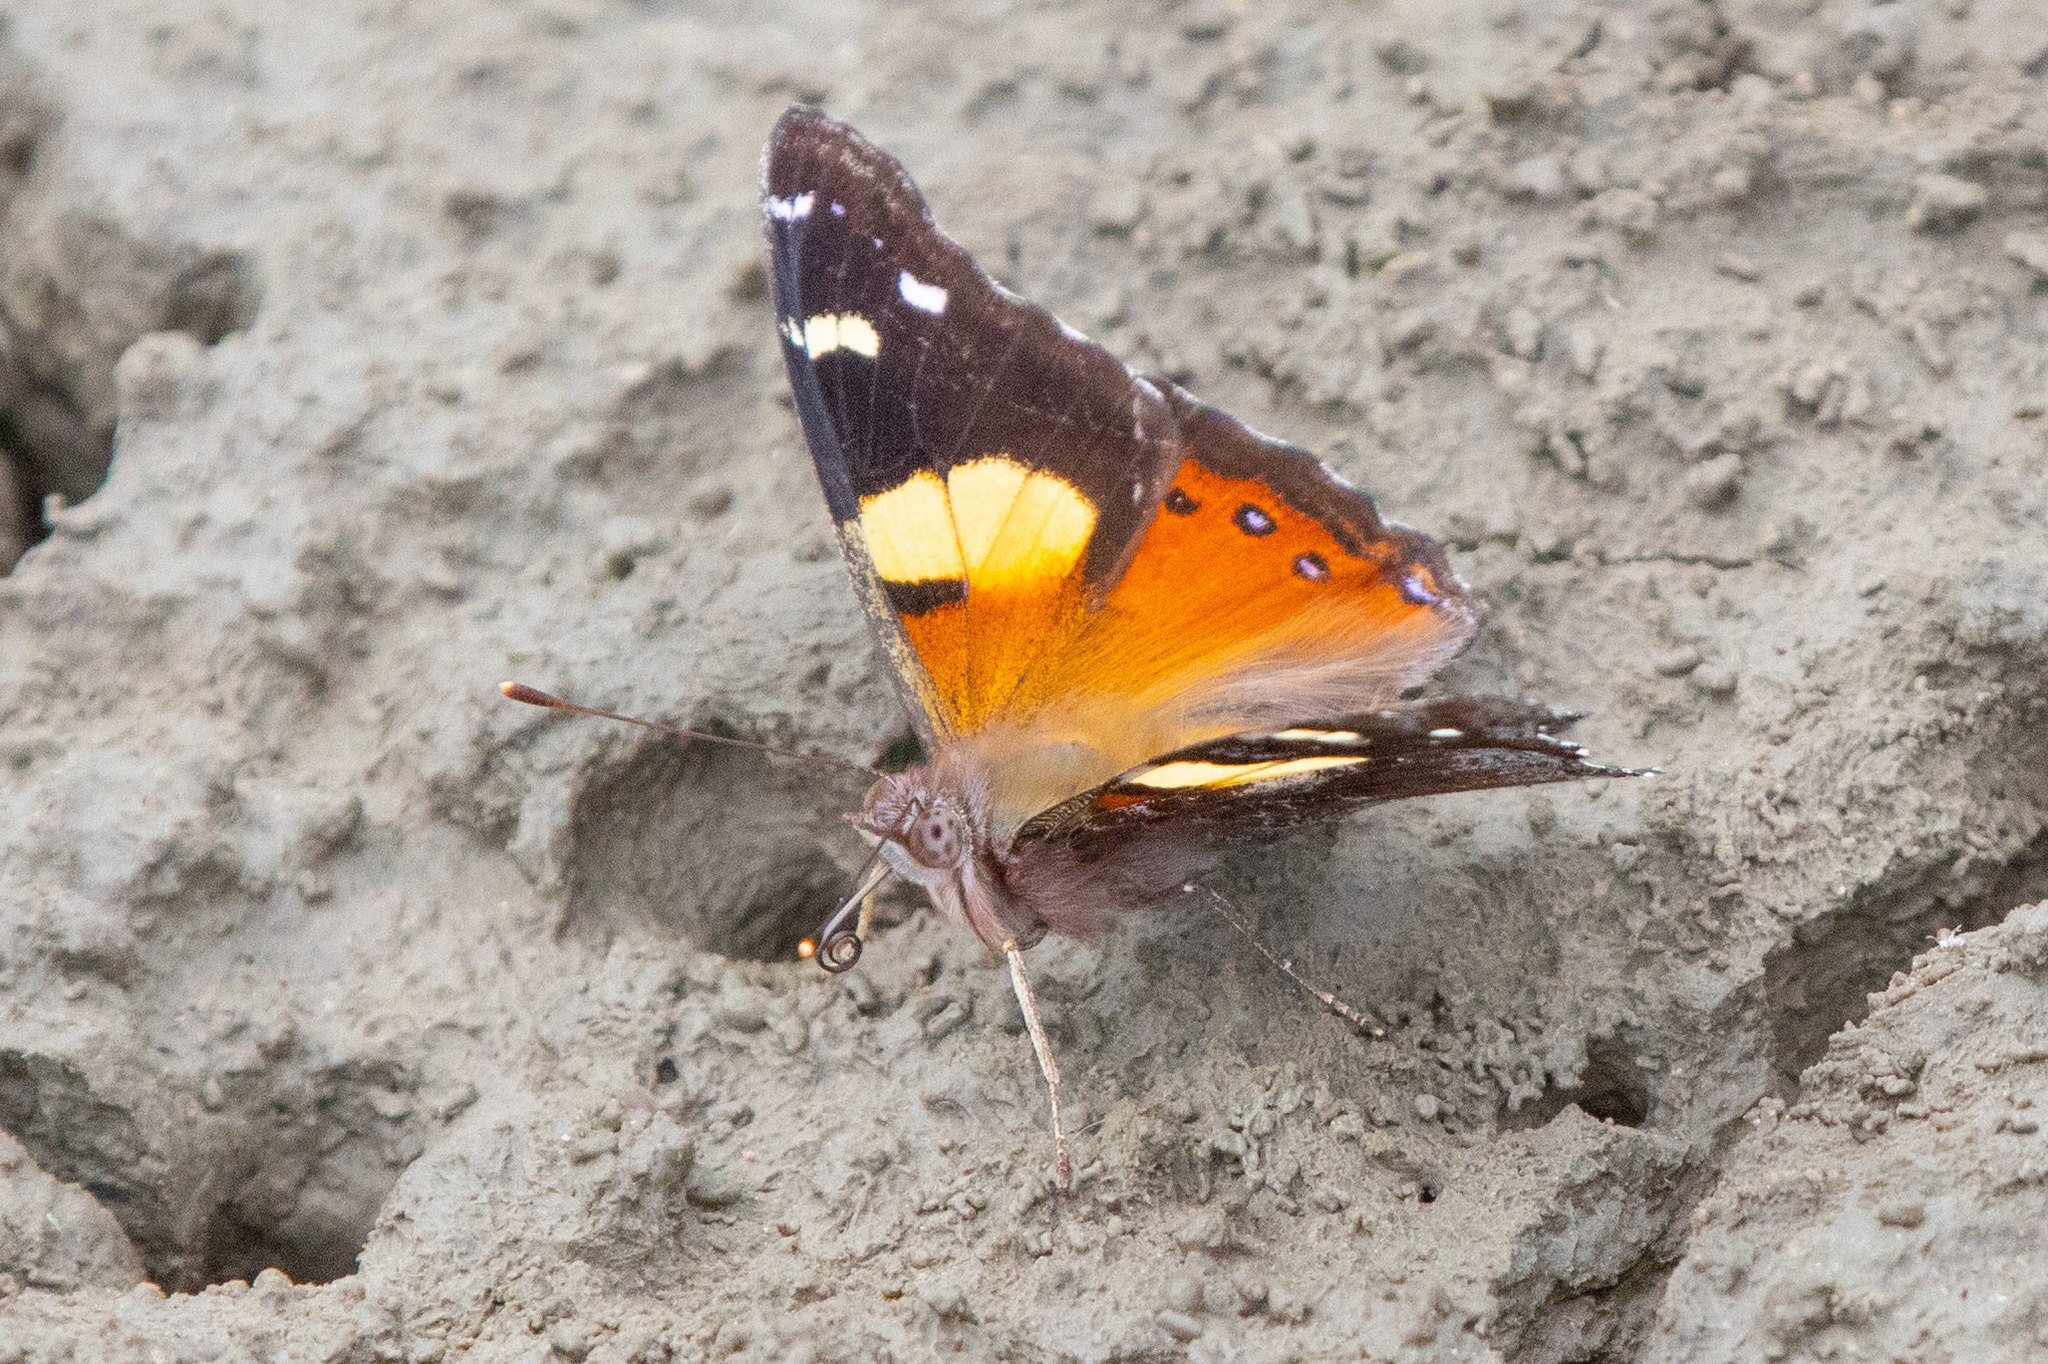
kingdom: Animalia
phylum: Arthropoda
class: Insecta
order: Lepidoptera
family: Nymphalidae
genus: Vanessa
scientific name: Vanessa itea
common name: Yellow admiral
